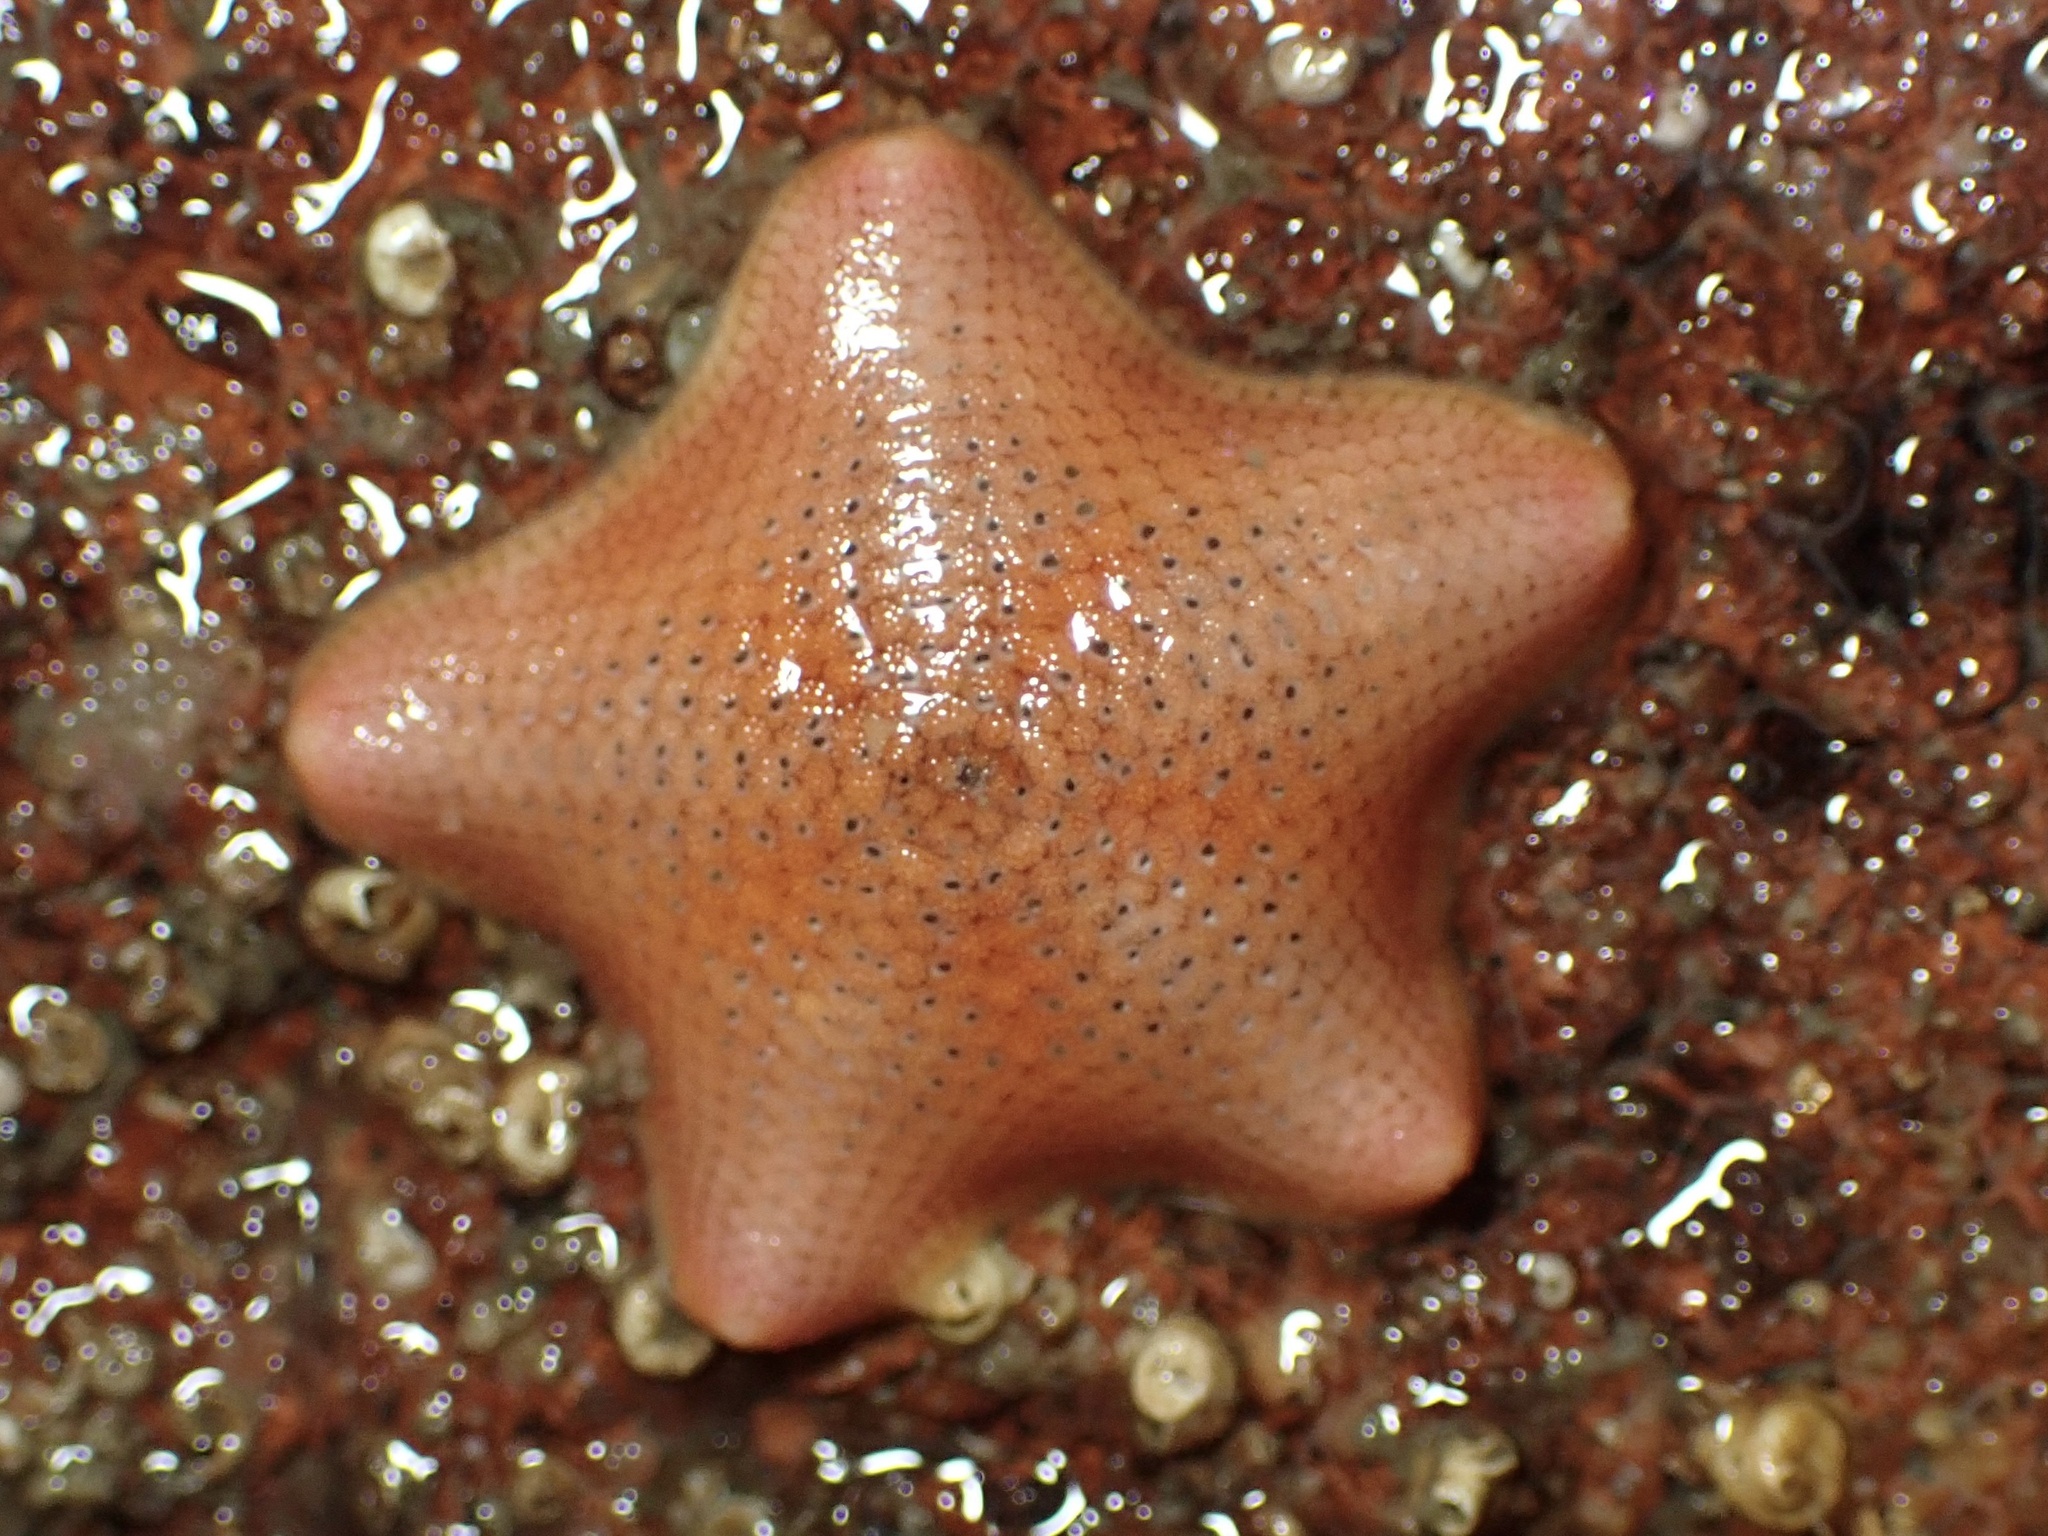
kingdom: Animalia
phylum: Echinodermata
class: Asteroidea
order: Valvatida
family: Asterinidae
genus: Patiria
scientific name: Patiria miniata
